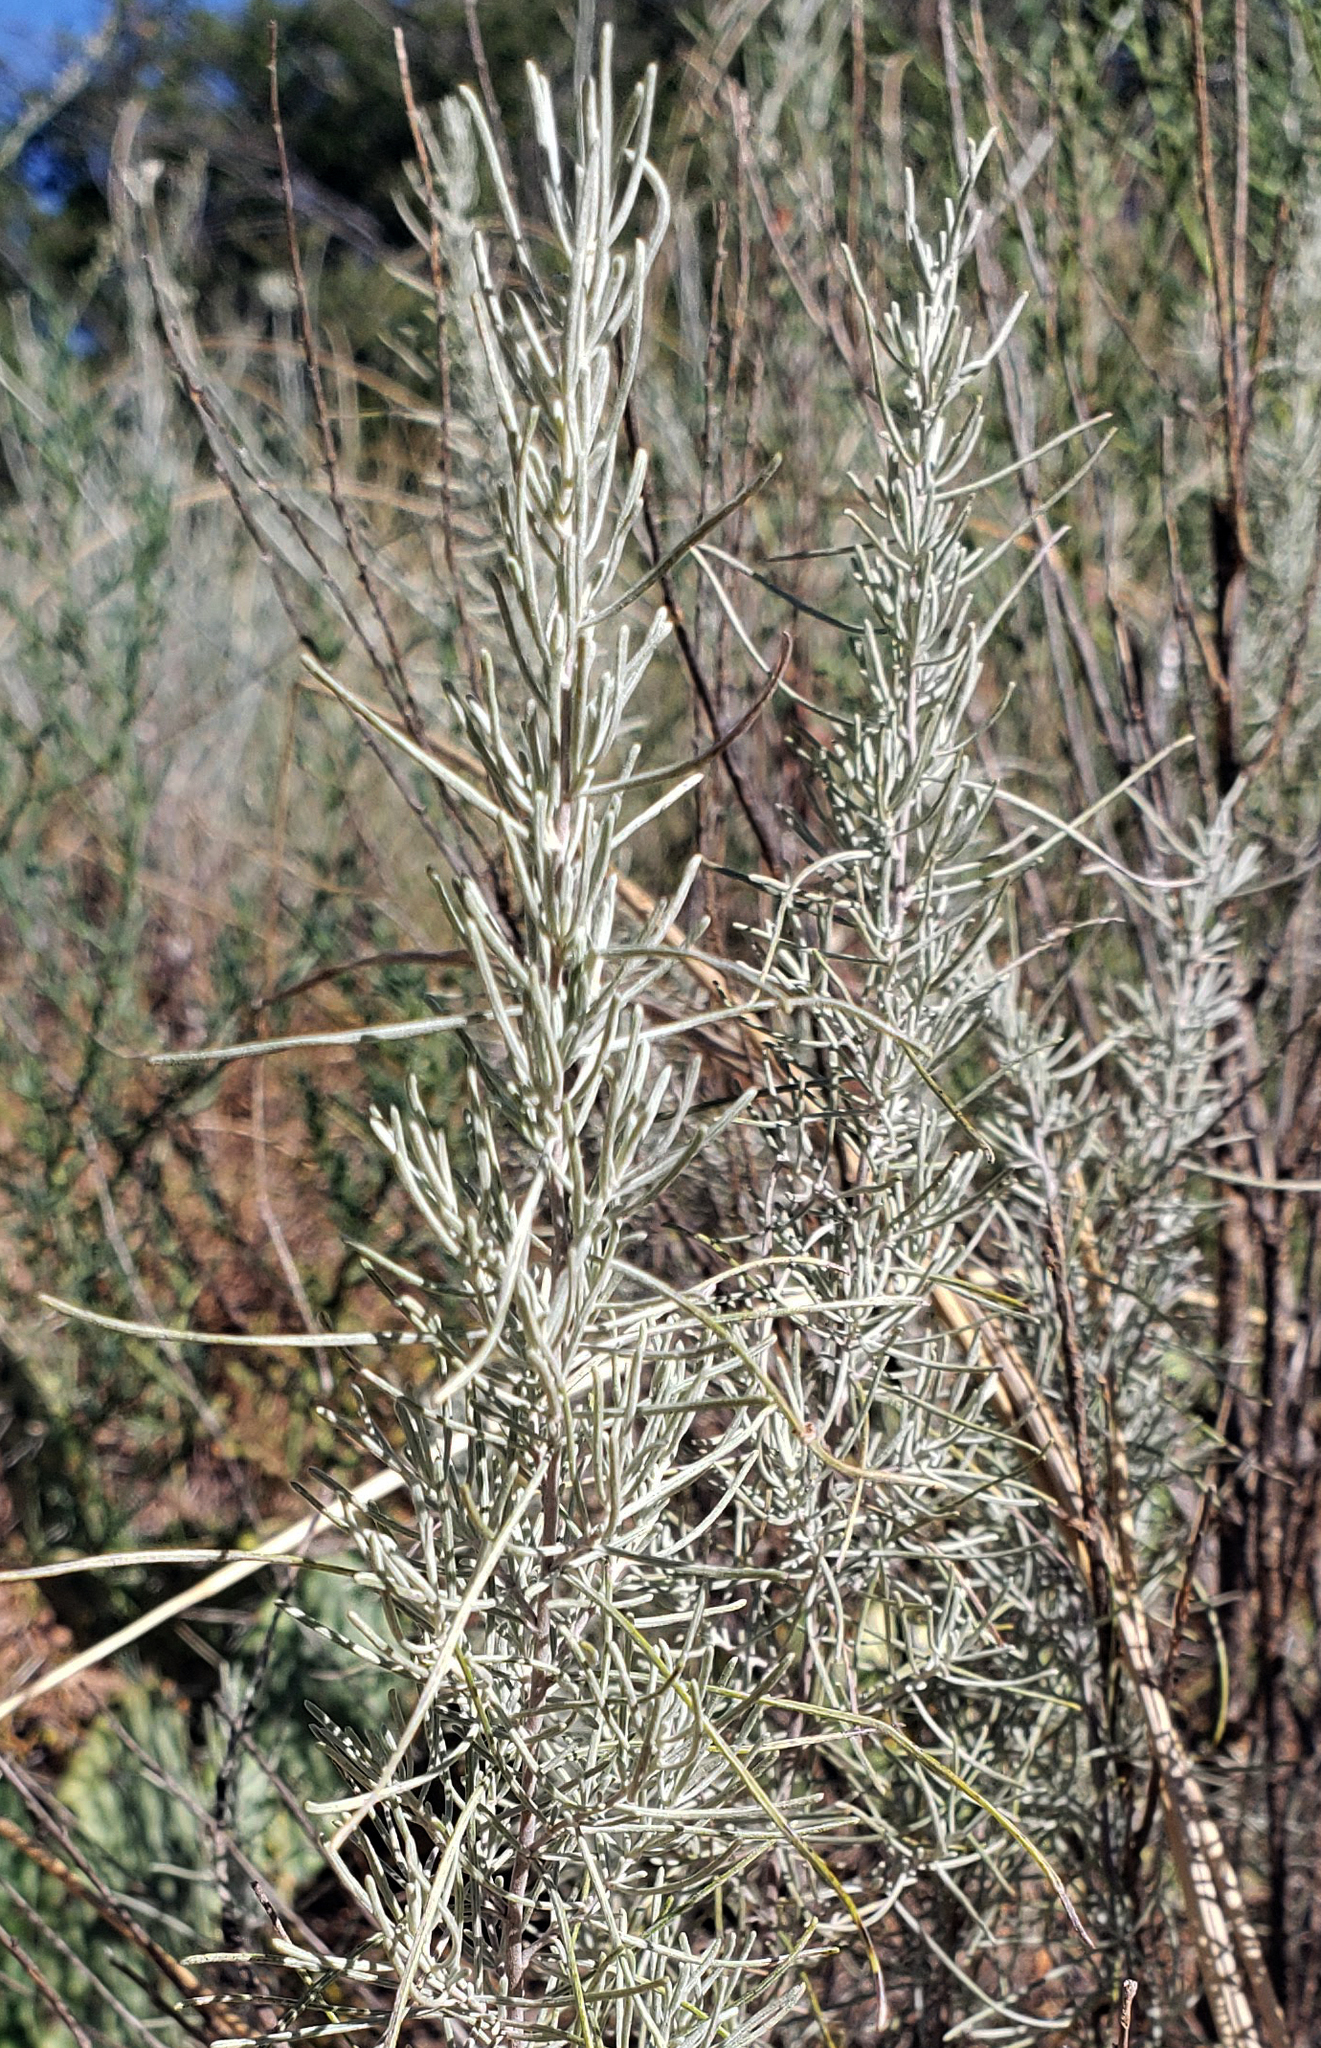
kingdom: Plantae
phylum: Tracheophyta
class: Magnoliopsida
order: Asterales
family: Asteraceae
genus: Artemisia
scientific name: Artemisia filifolia
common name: Sand-sage
